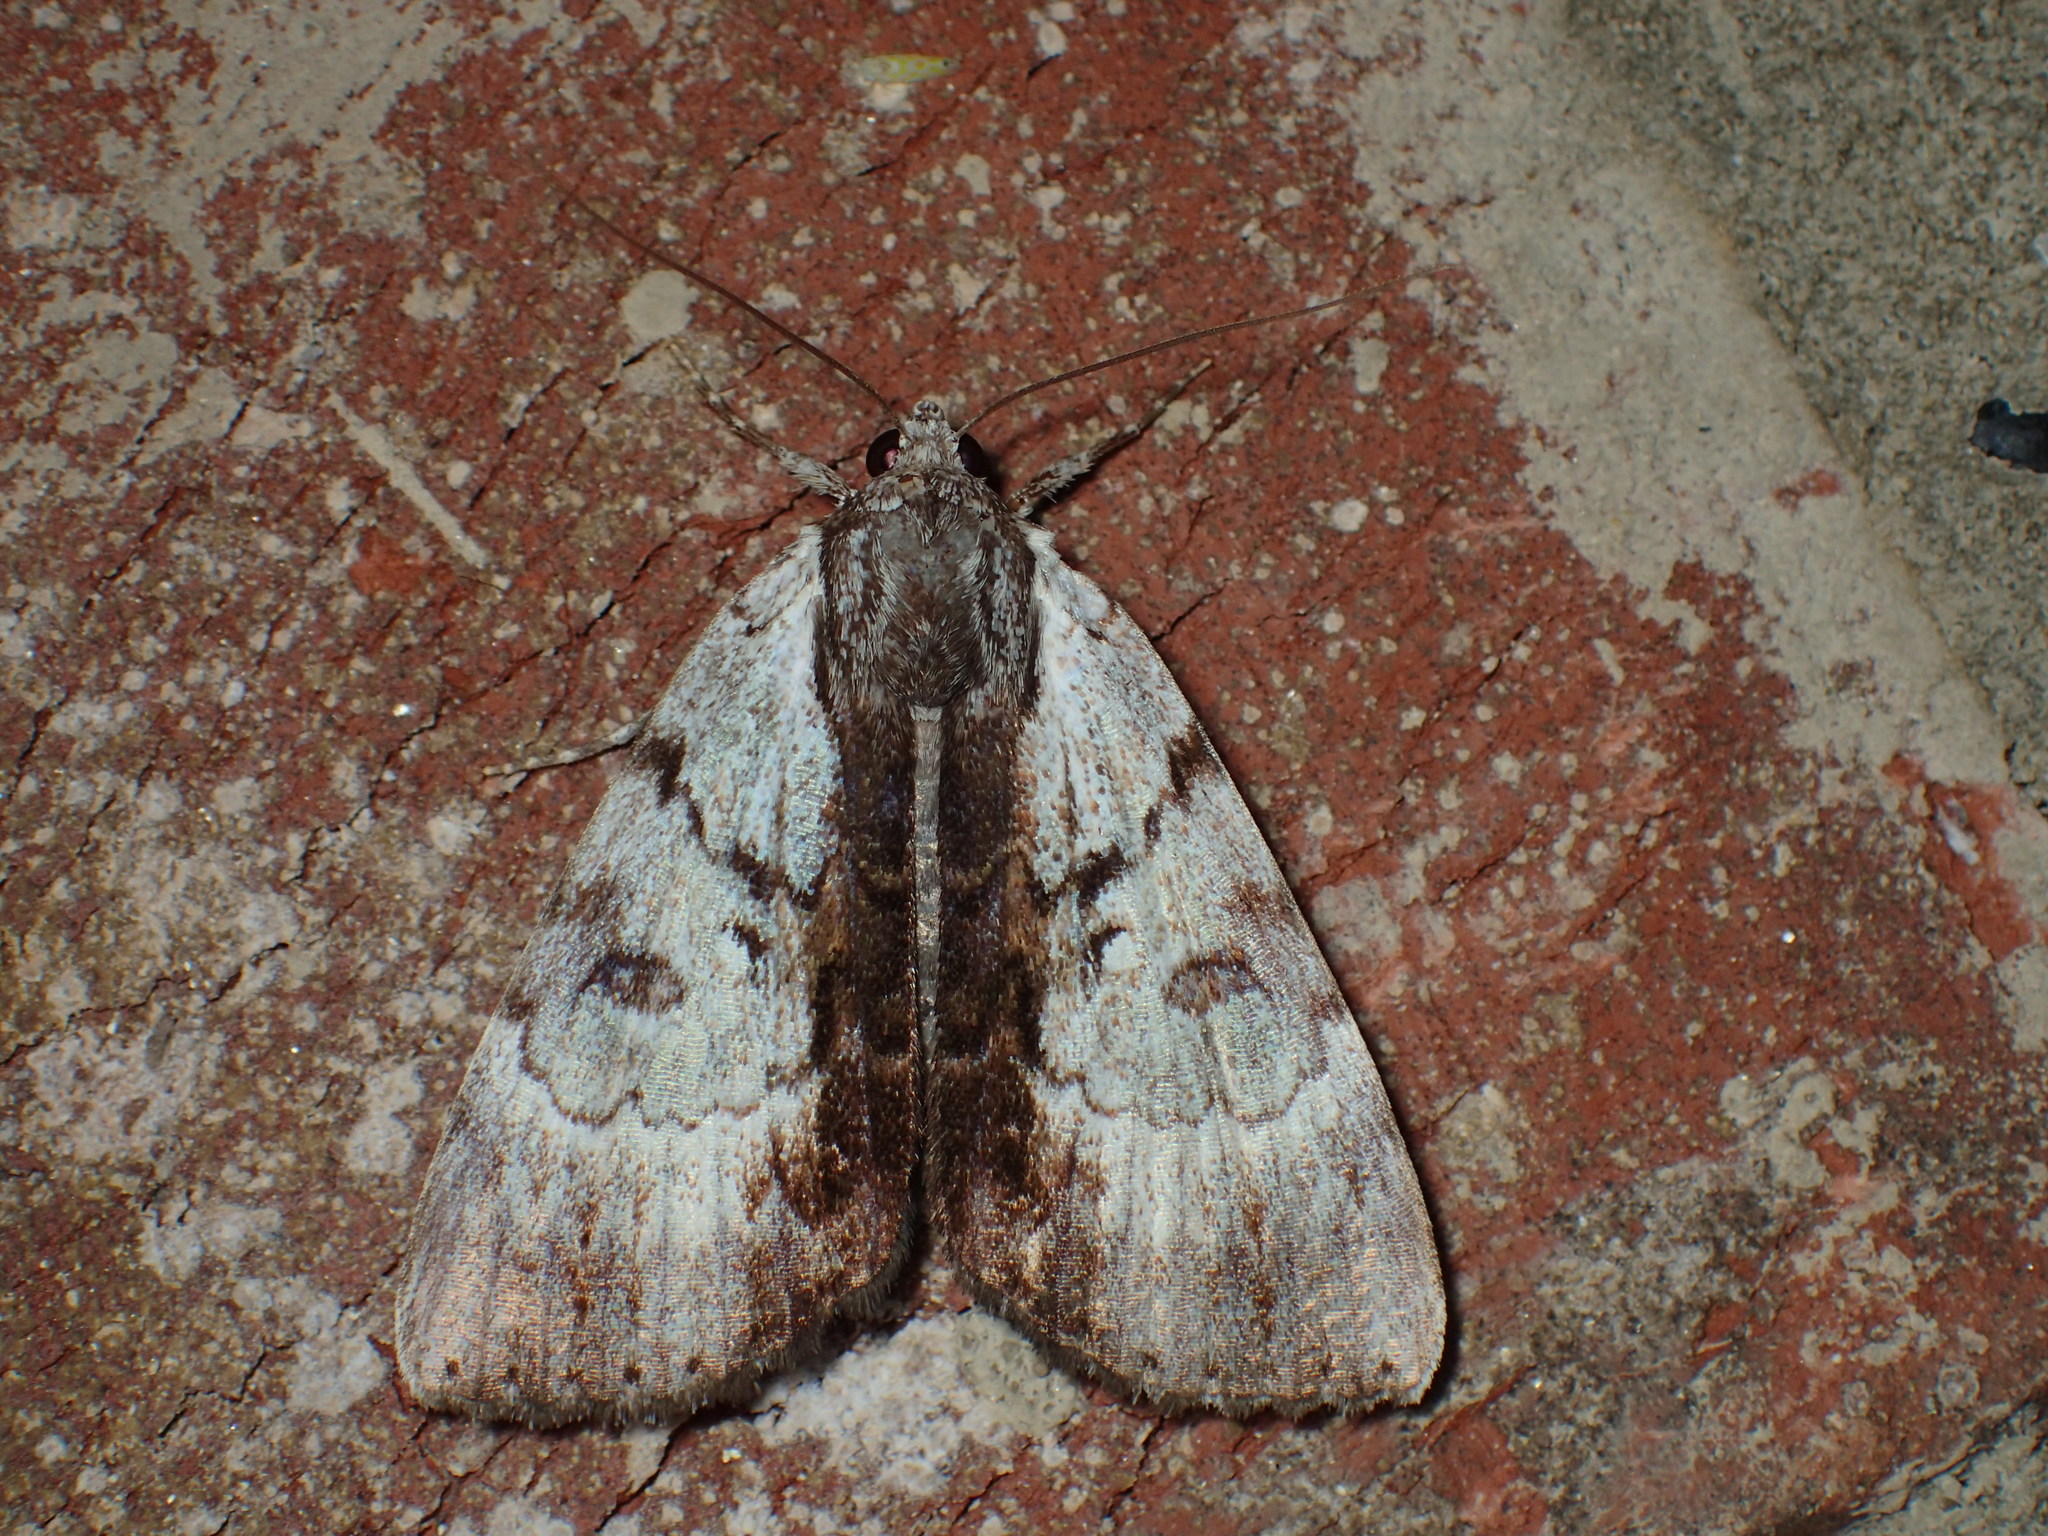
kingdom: Animalia
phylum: Arthropoda
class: Insecta
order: Lepidoptera
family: Erebidae
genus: Catocala
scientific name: Catocala andromedae
